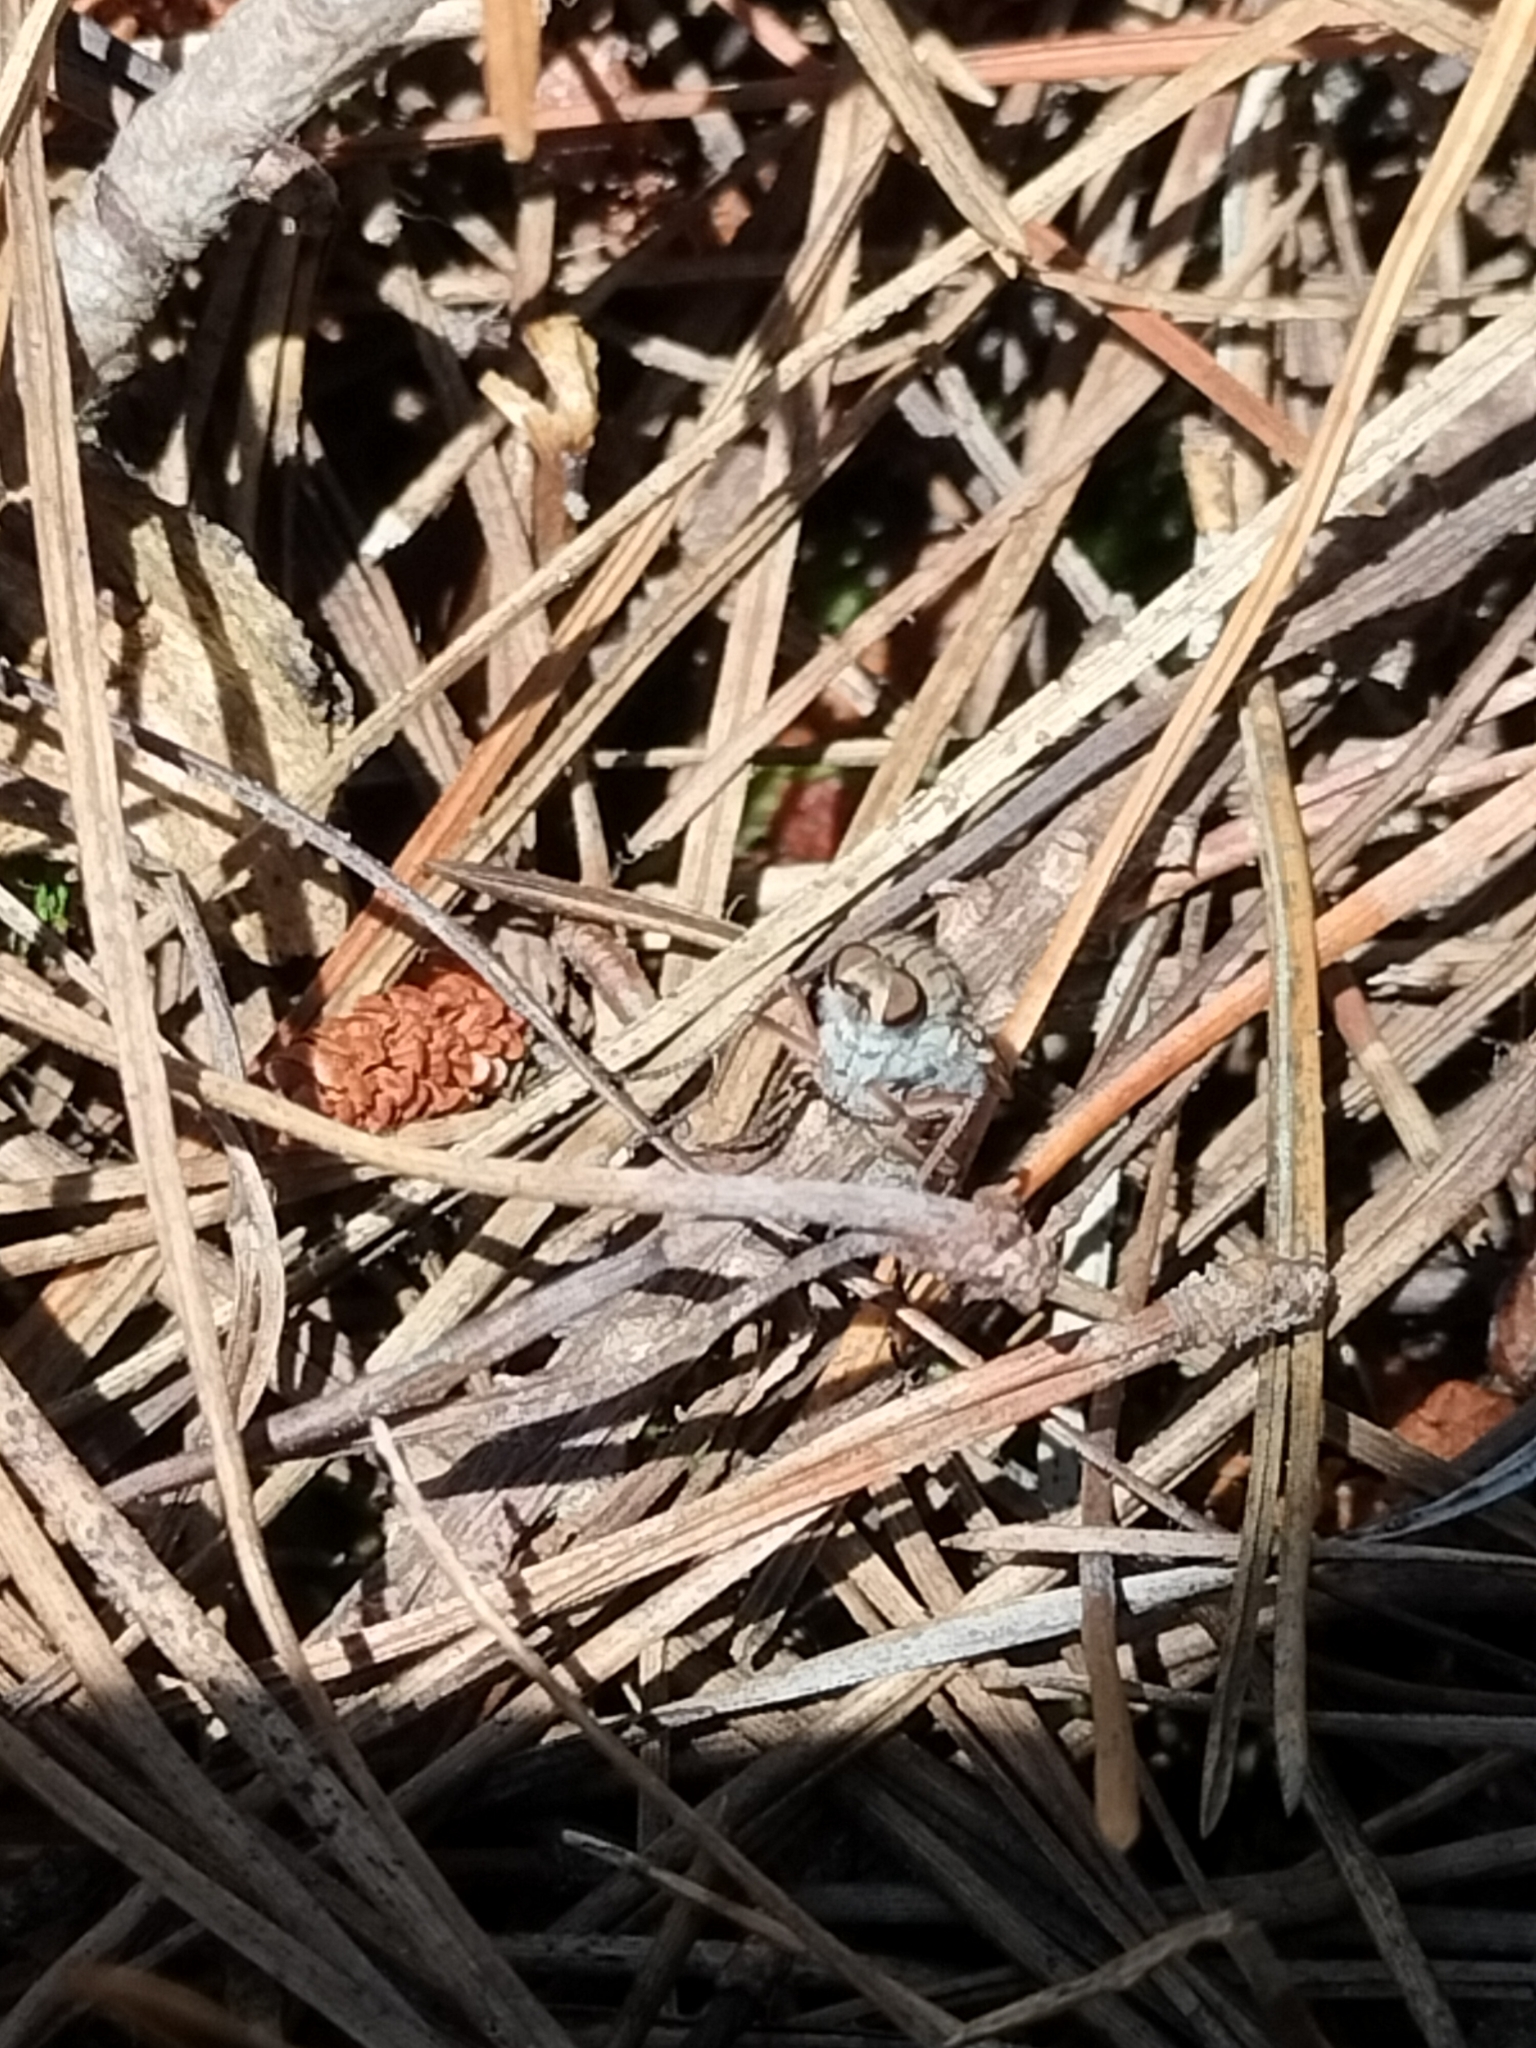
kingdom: Animalia
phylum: Arthropoda
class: Insecta
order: Diptera
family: Therevidae
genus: Anabarhynchus
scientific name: Anabarhynchus
